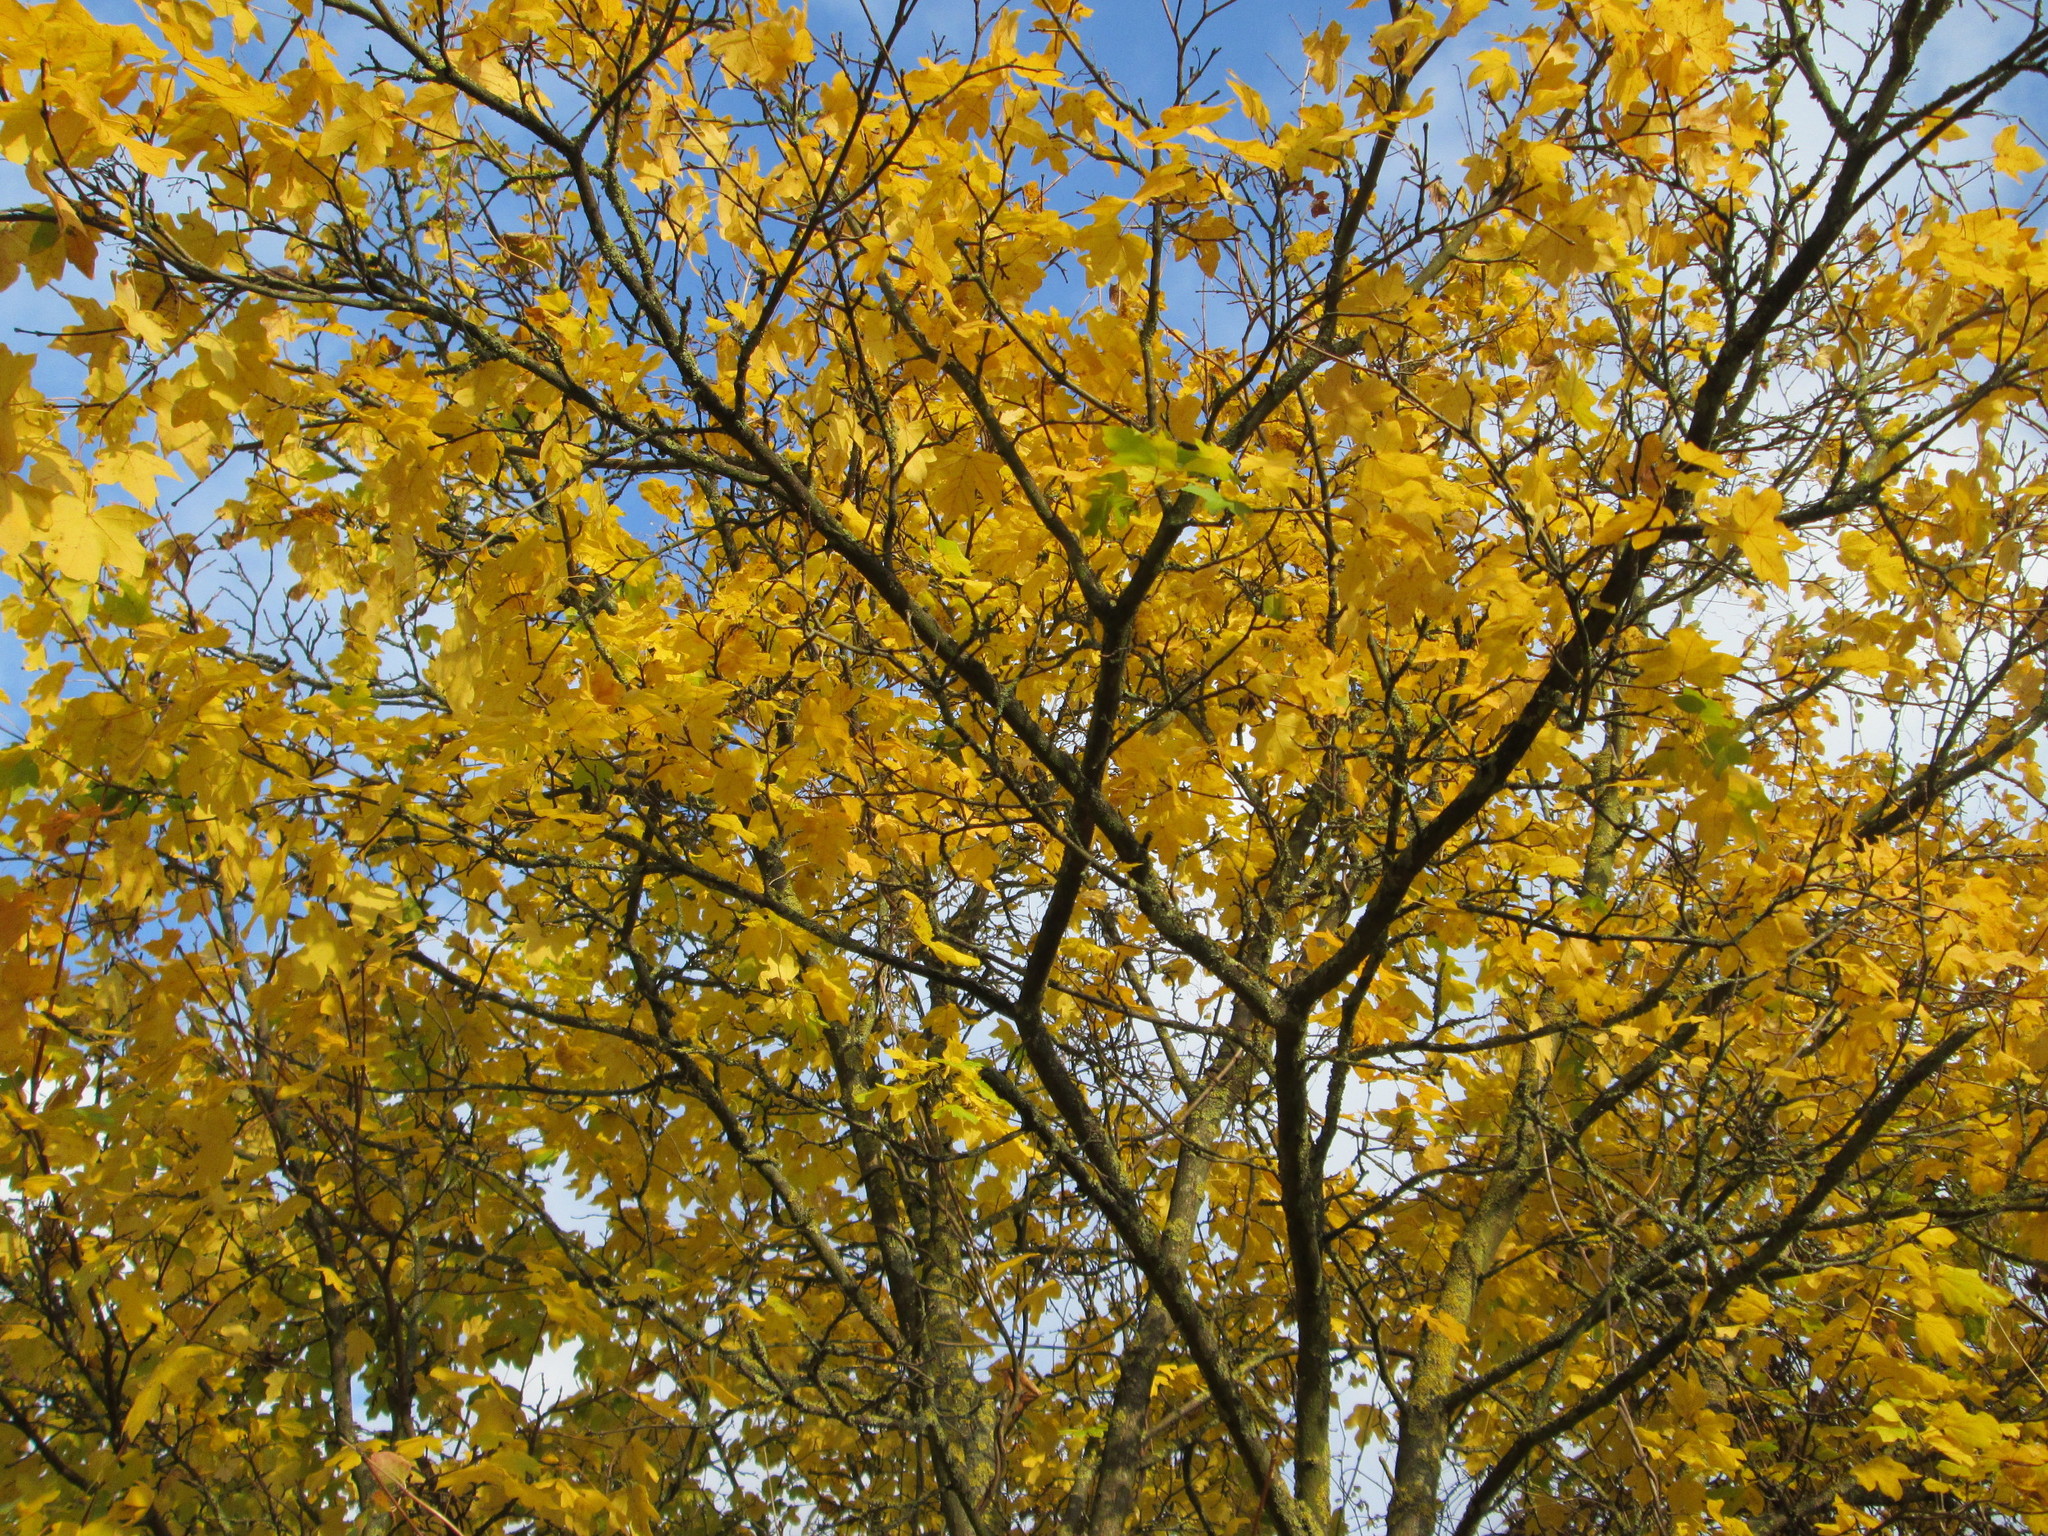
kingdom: Plantae
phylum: Tracheophyta
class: Magnoliopsida
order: Sapindales
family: Sapindaceae
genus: Acer
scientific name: Acer pseudoplatanus
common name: Sycamore
